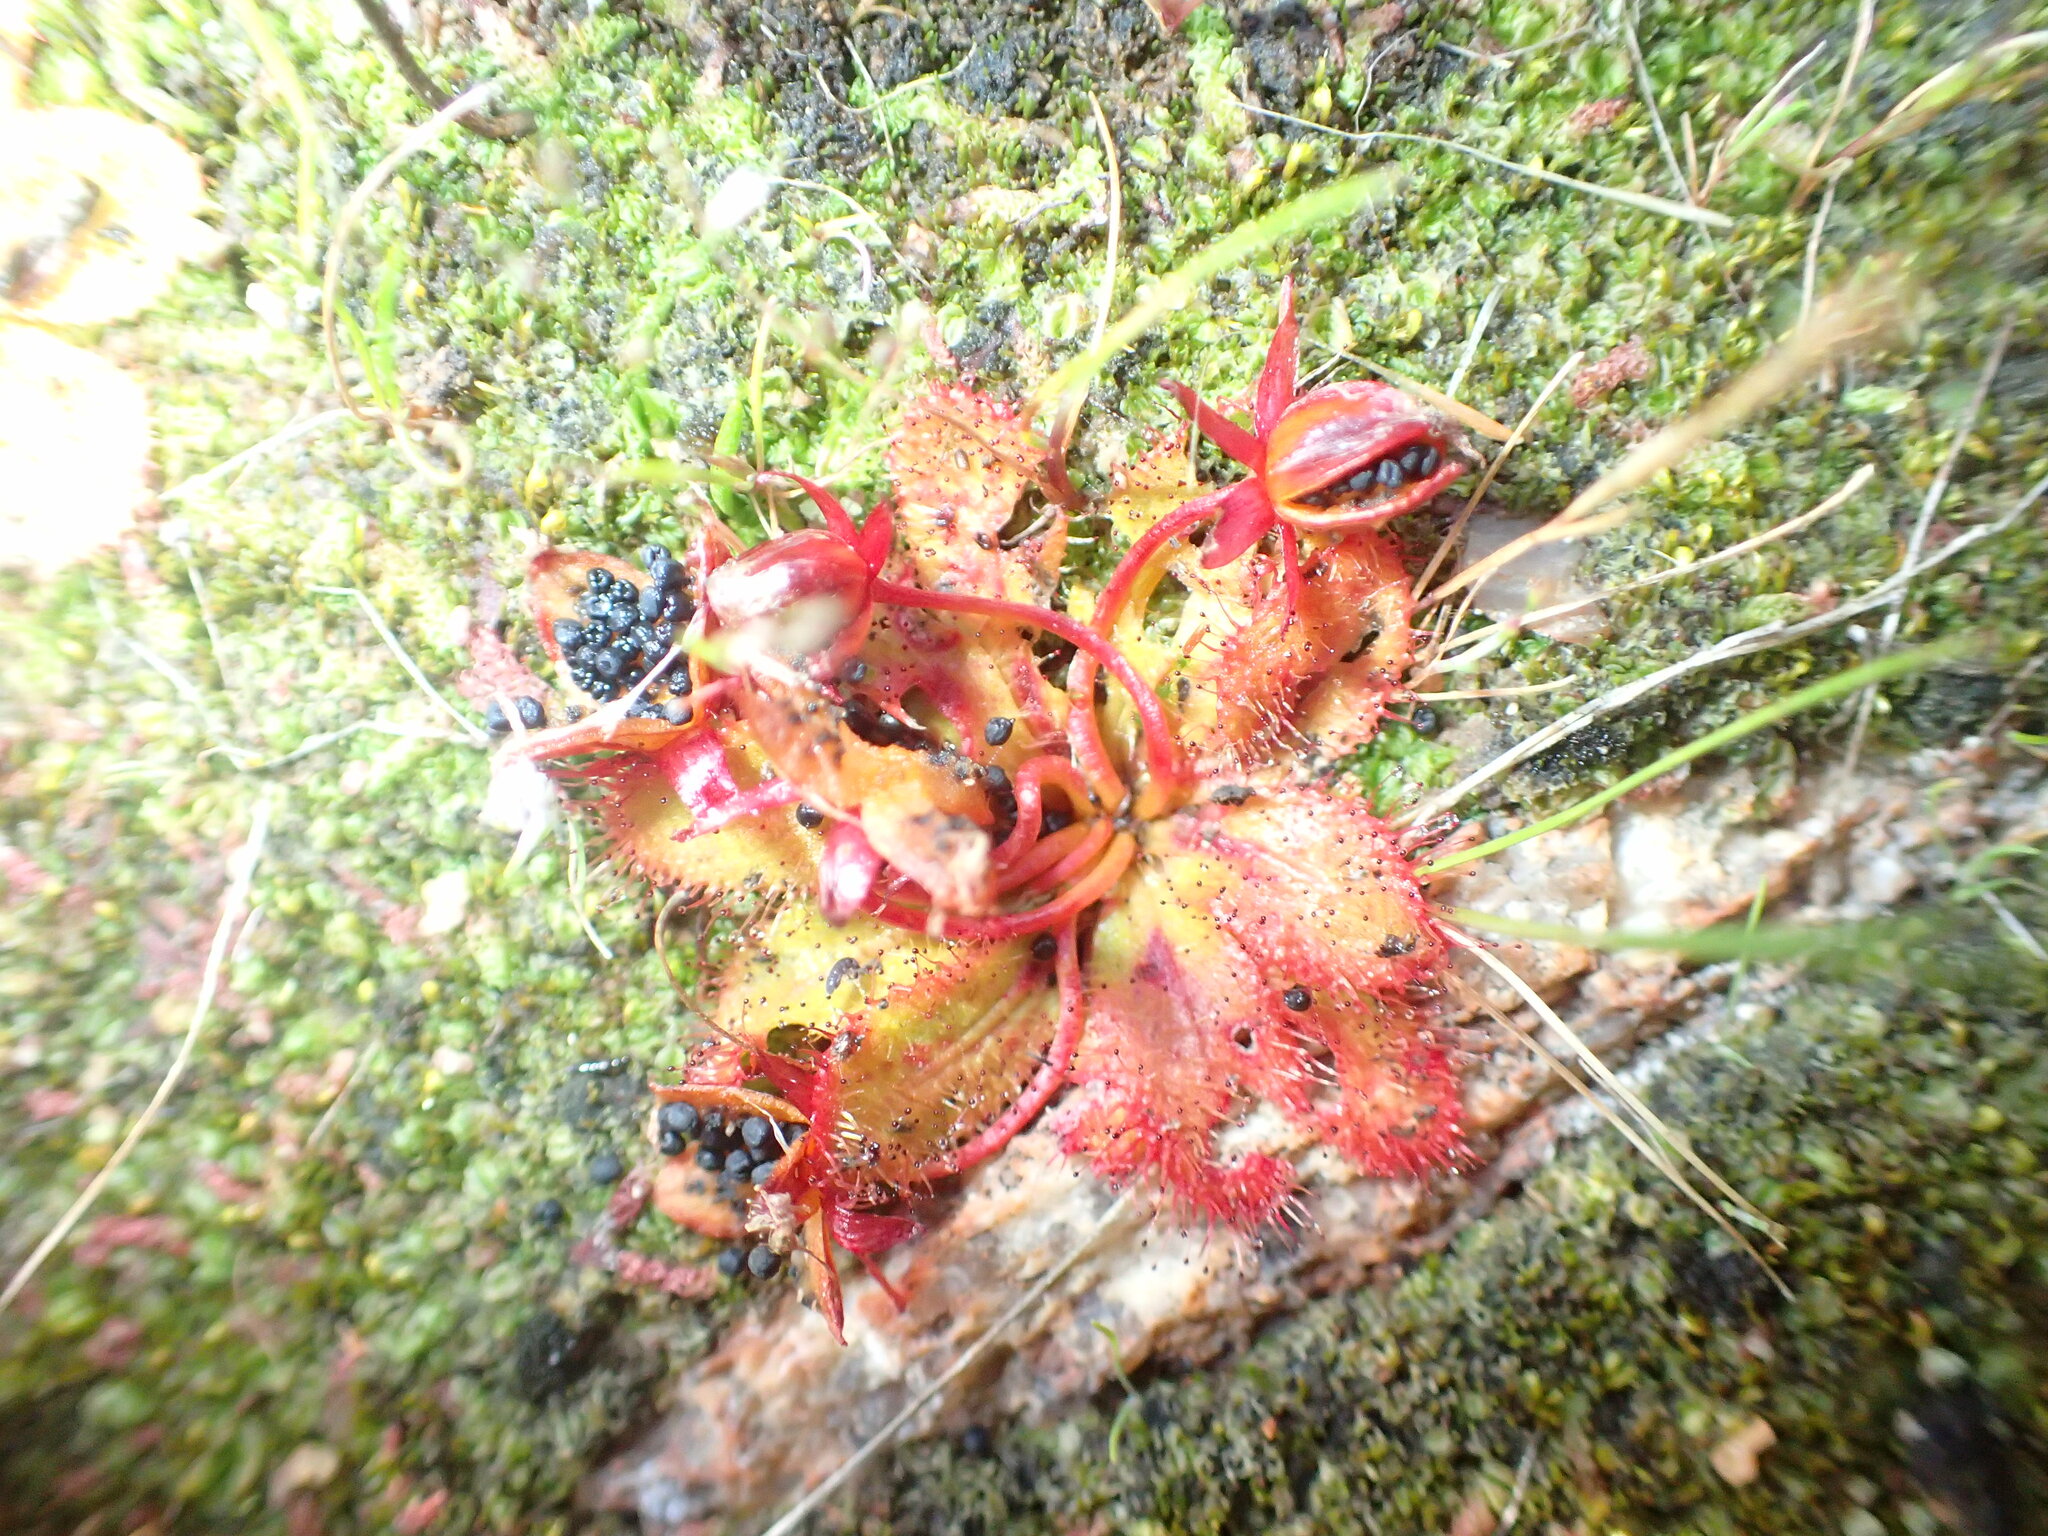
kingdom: Plantae
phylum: Tracheophyta
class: Magnoliopsida
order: Caryophyllales
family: Droseraceae
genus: Drosera
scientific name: Drosera bulbosa
